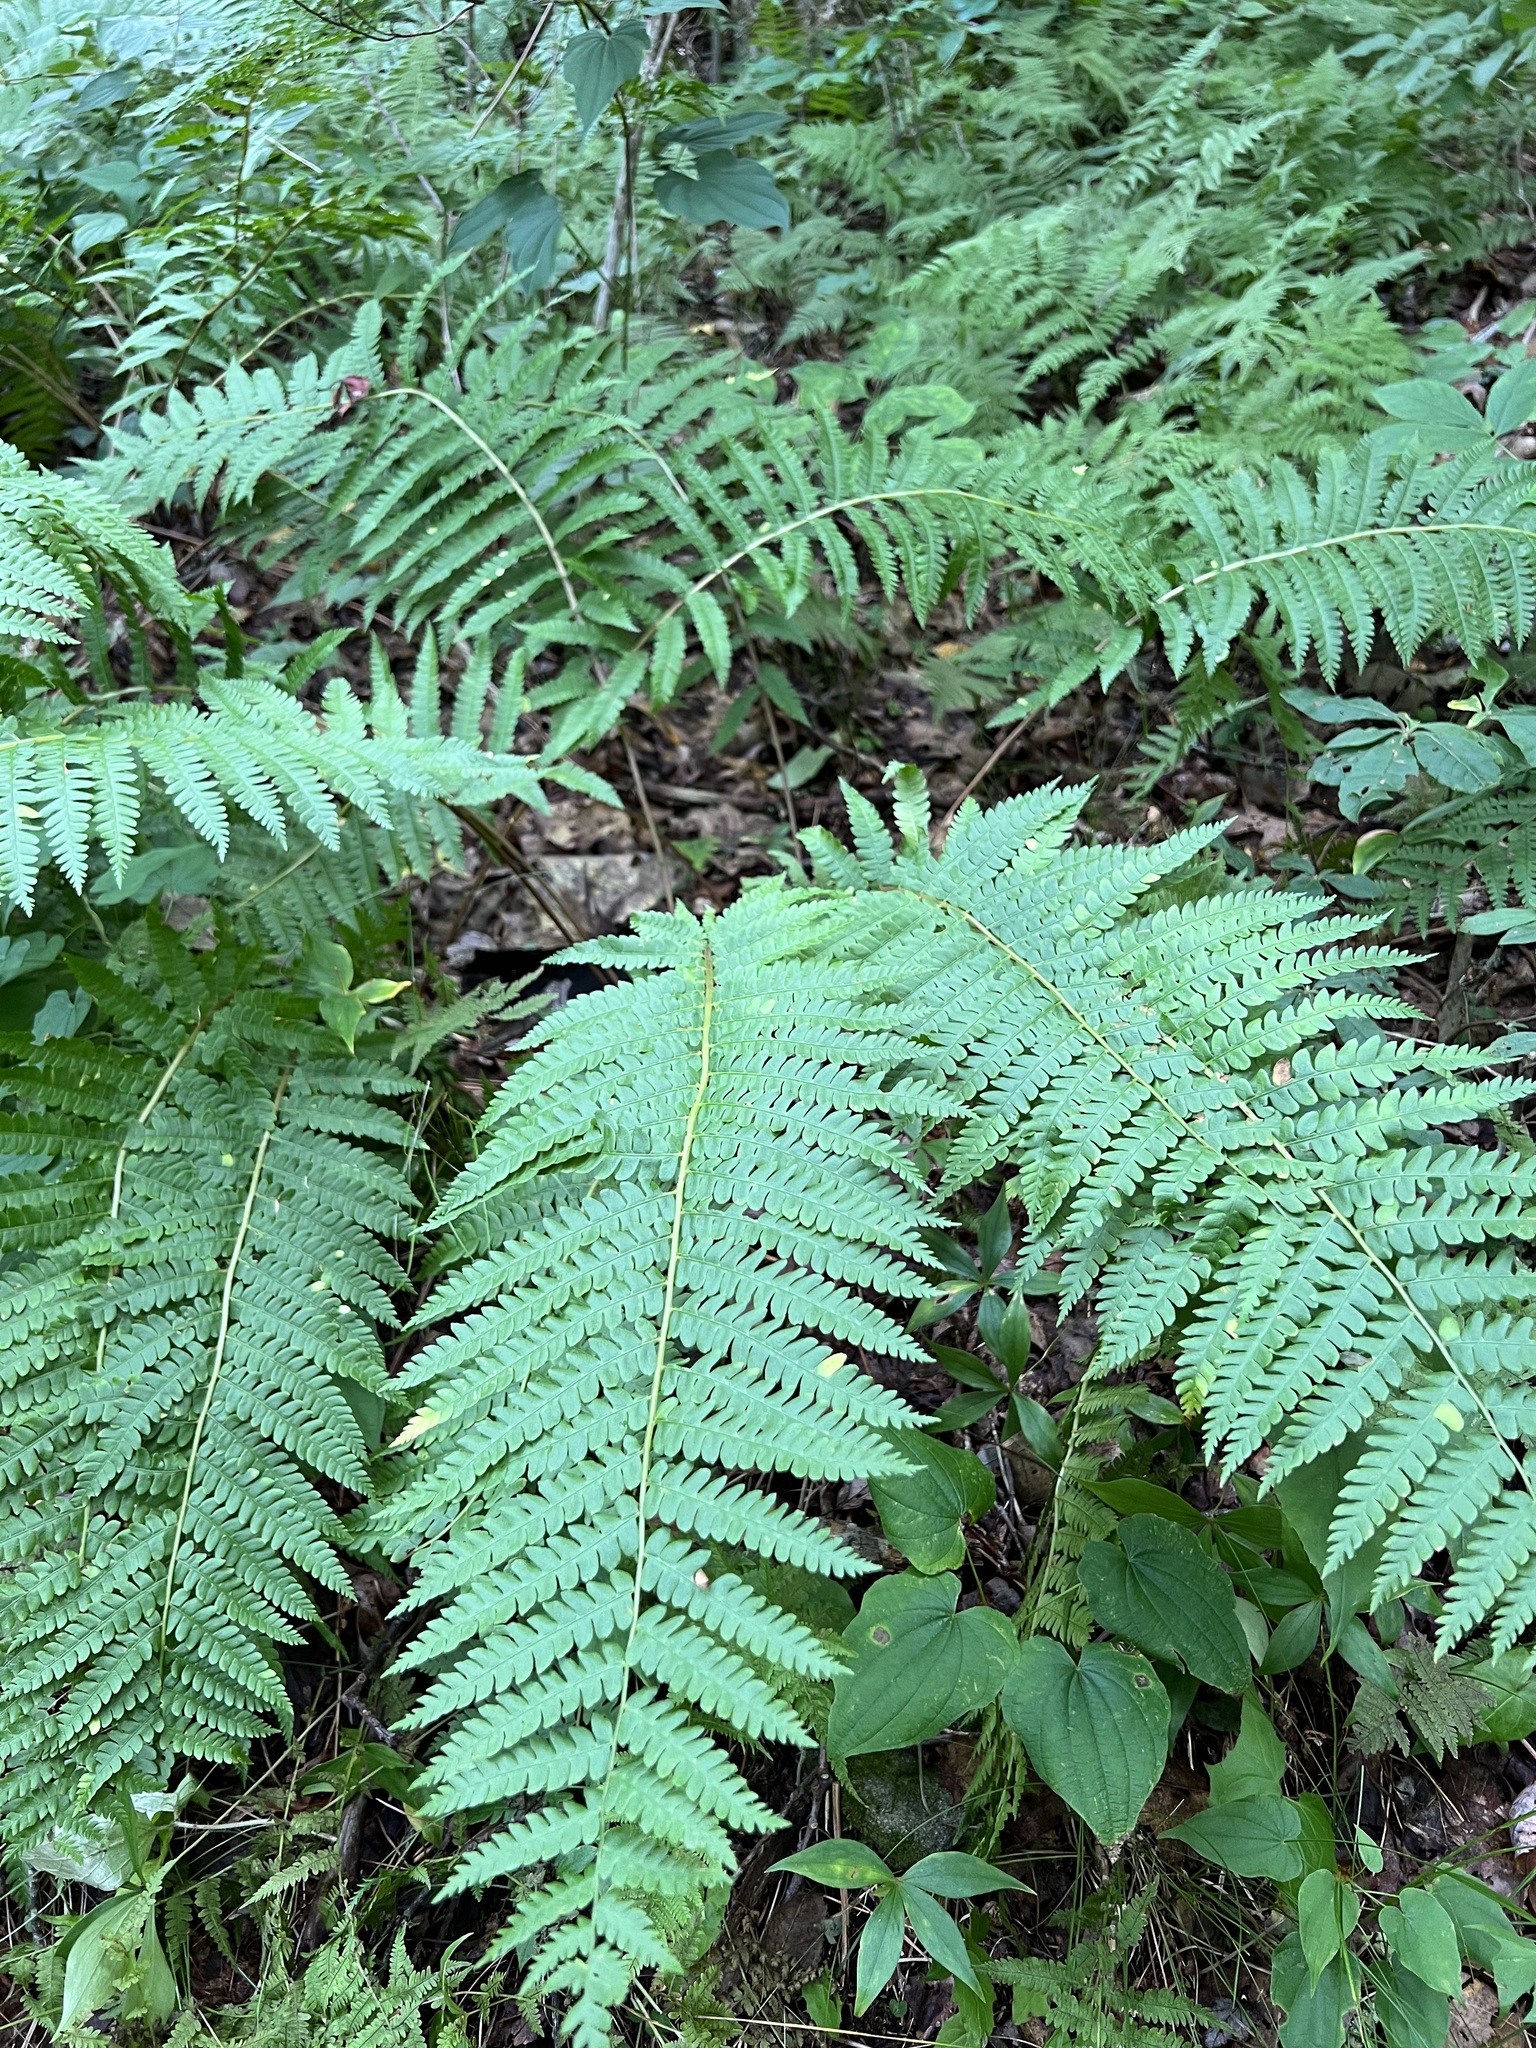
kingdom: Plantae
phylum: Tracheophyta
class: Polypodiopsida
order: Osmundales
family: Osmundaceae
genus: Osmundastrum
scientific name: Osmundastrum cinnamomeum
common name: Cinnamon fern
